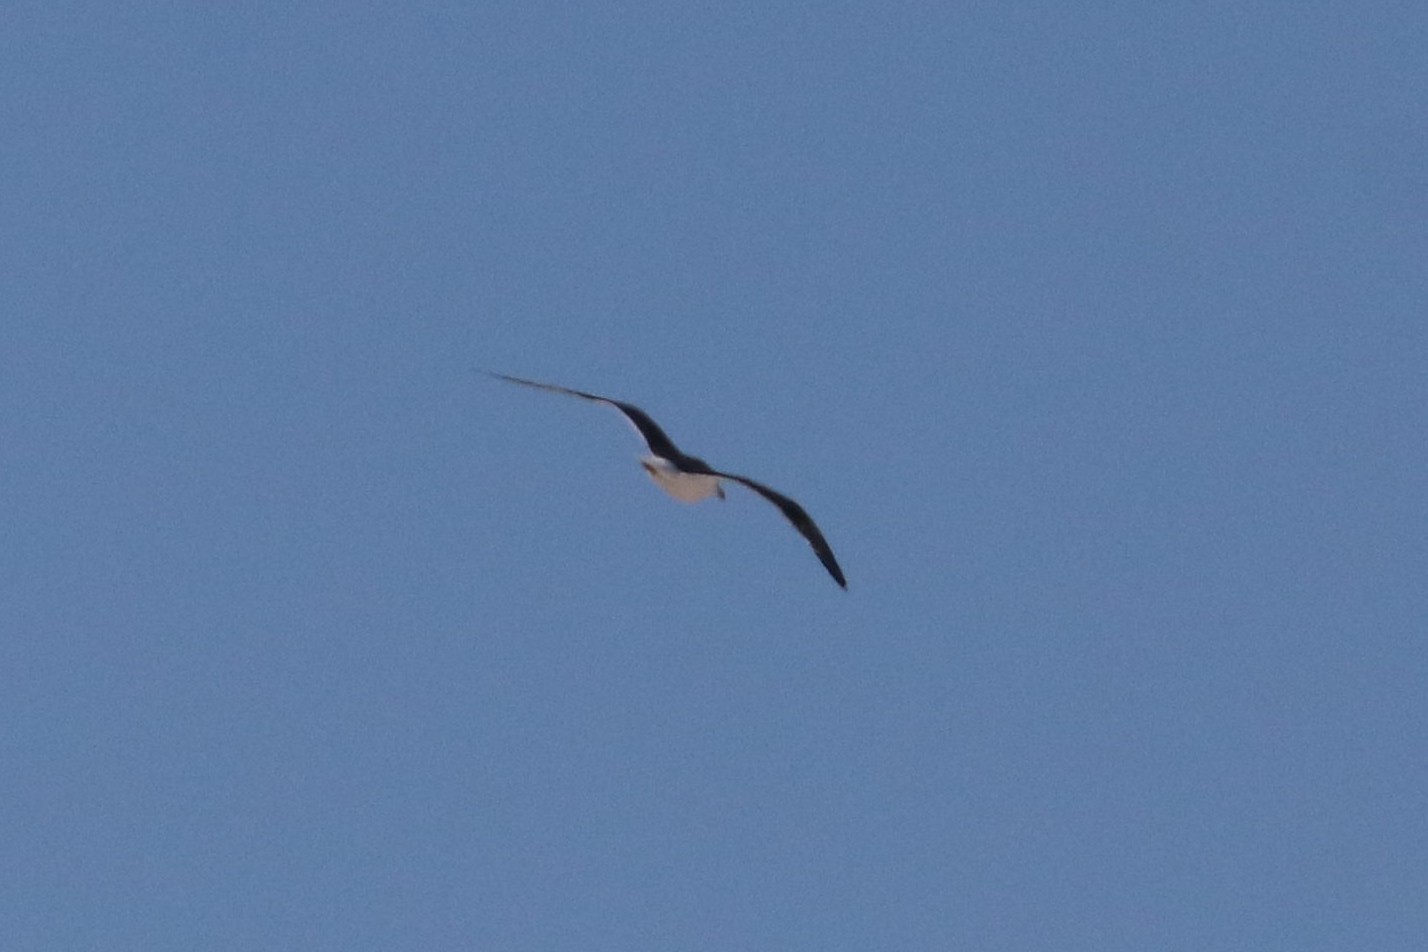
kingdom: Animalia
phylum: Chordata
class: Aves
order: Charadriiformes
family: Laridae
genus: Larus
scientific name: Larus fuscus
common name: Lesser black-backed gull
